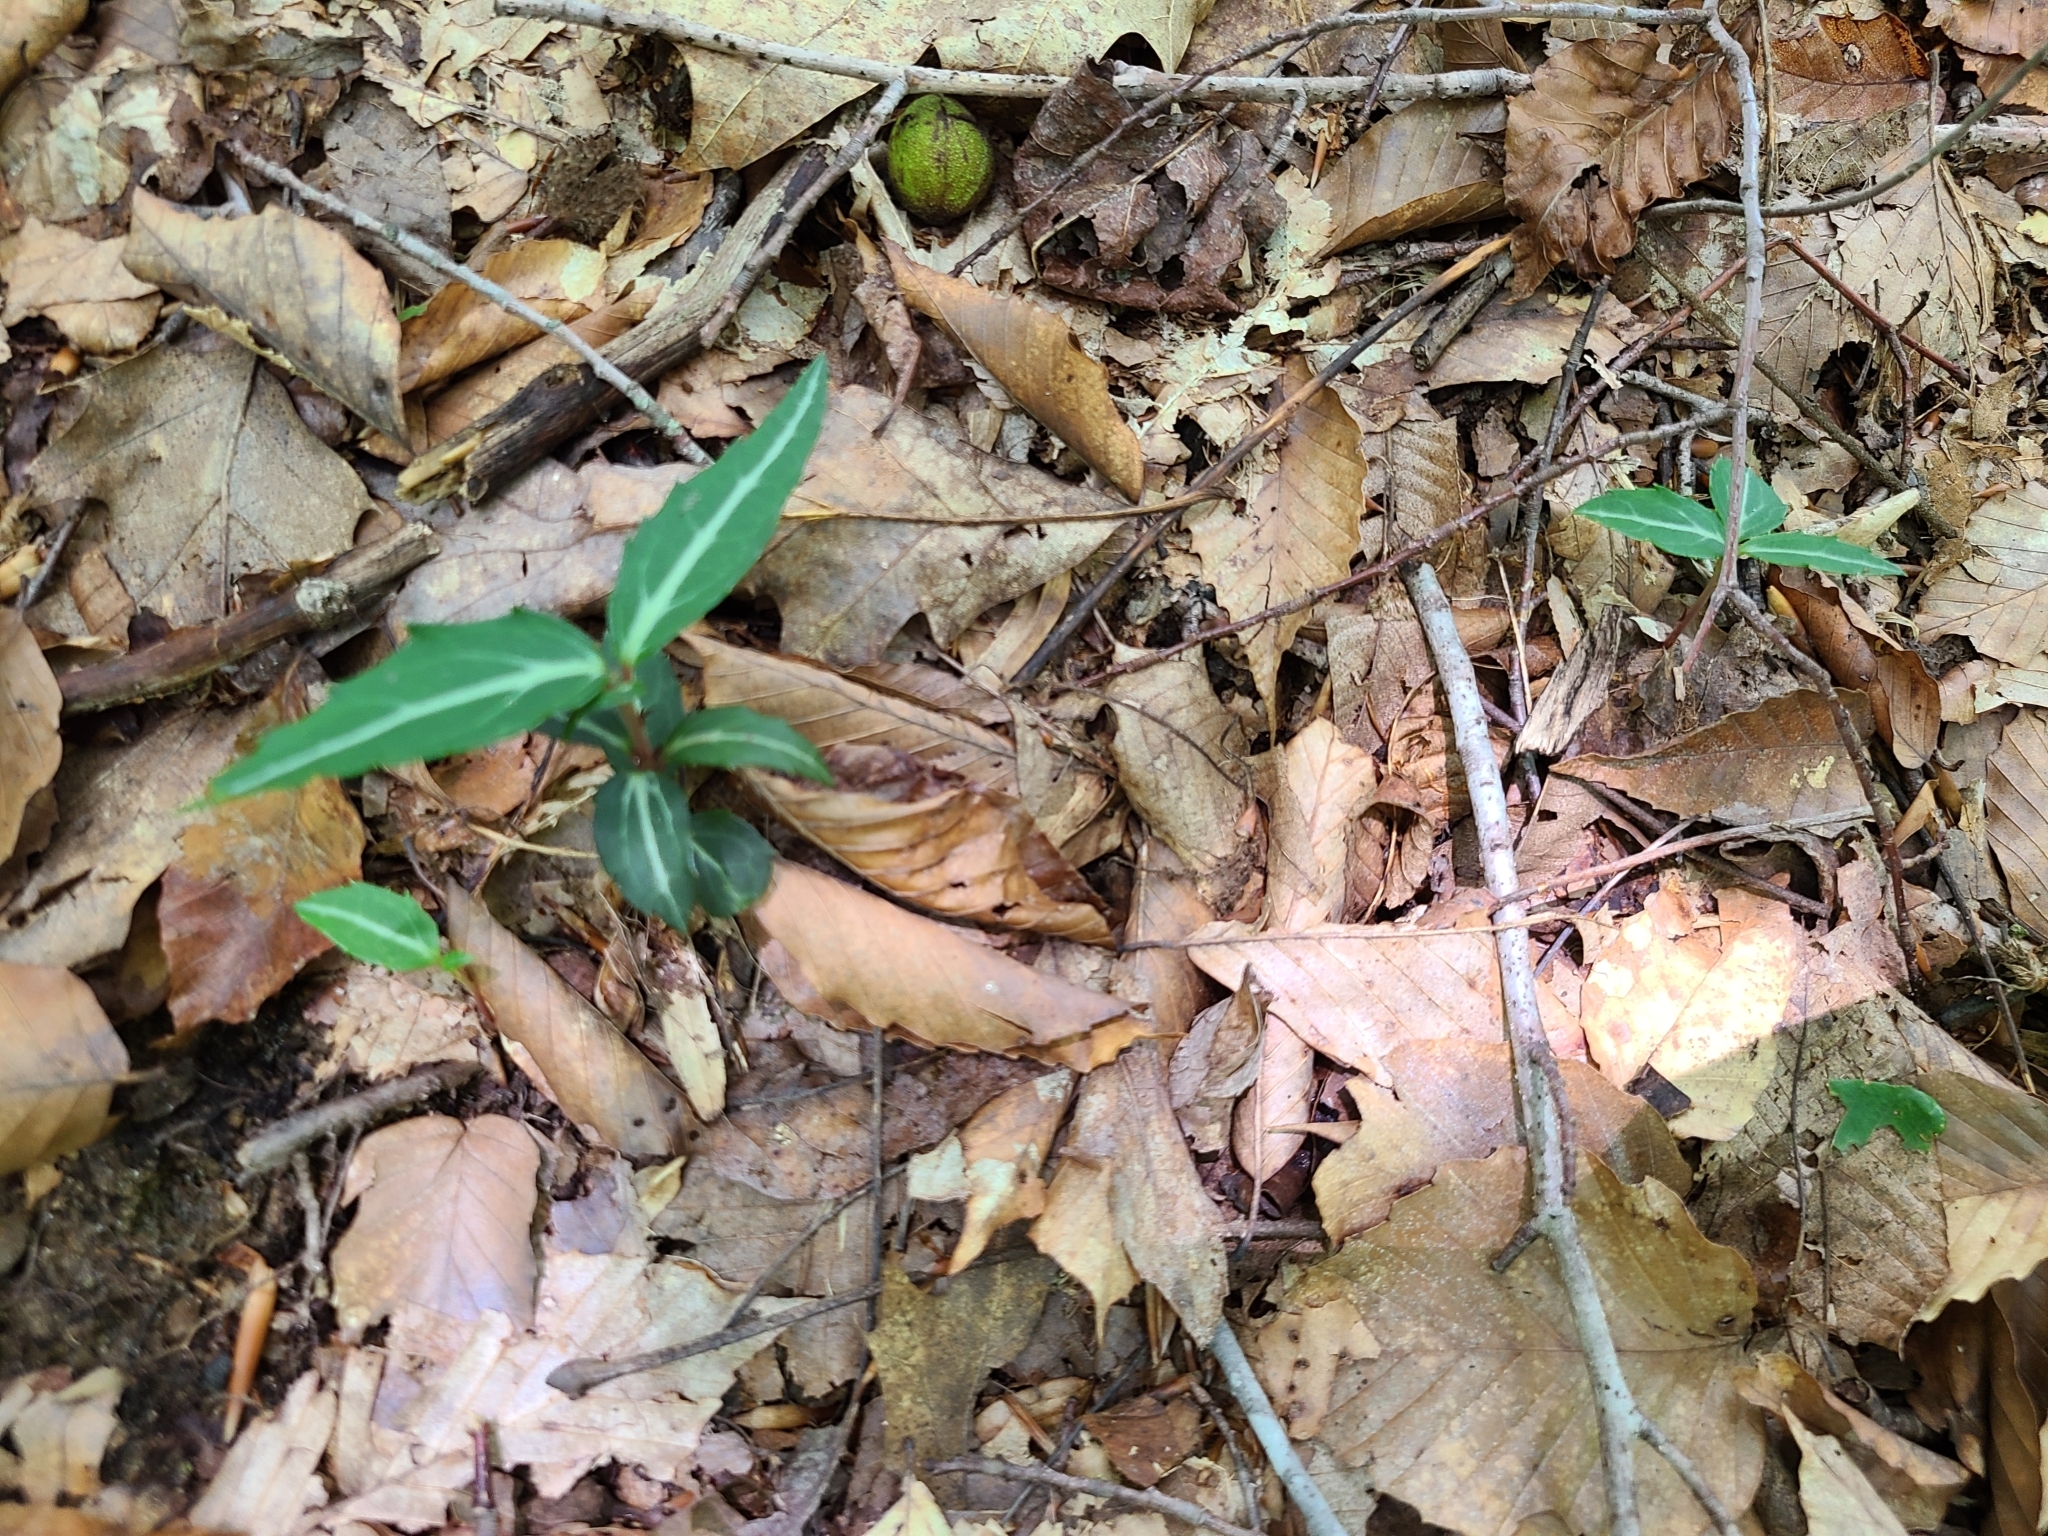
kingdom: Plantae
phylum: Tracheophyta
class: Magnoliopsida
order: Ericales
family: Ericaceae
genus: Chimaphila
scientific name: Chimaphila maculata
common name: Spotted pipsissewa
